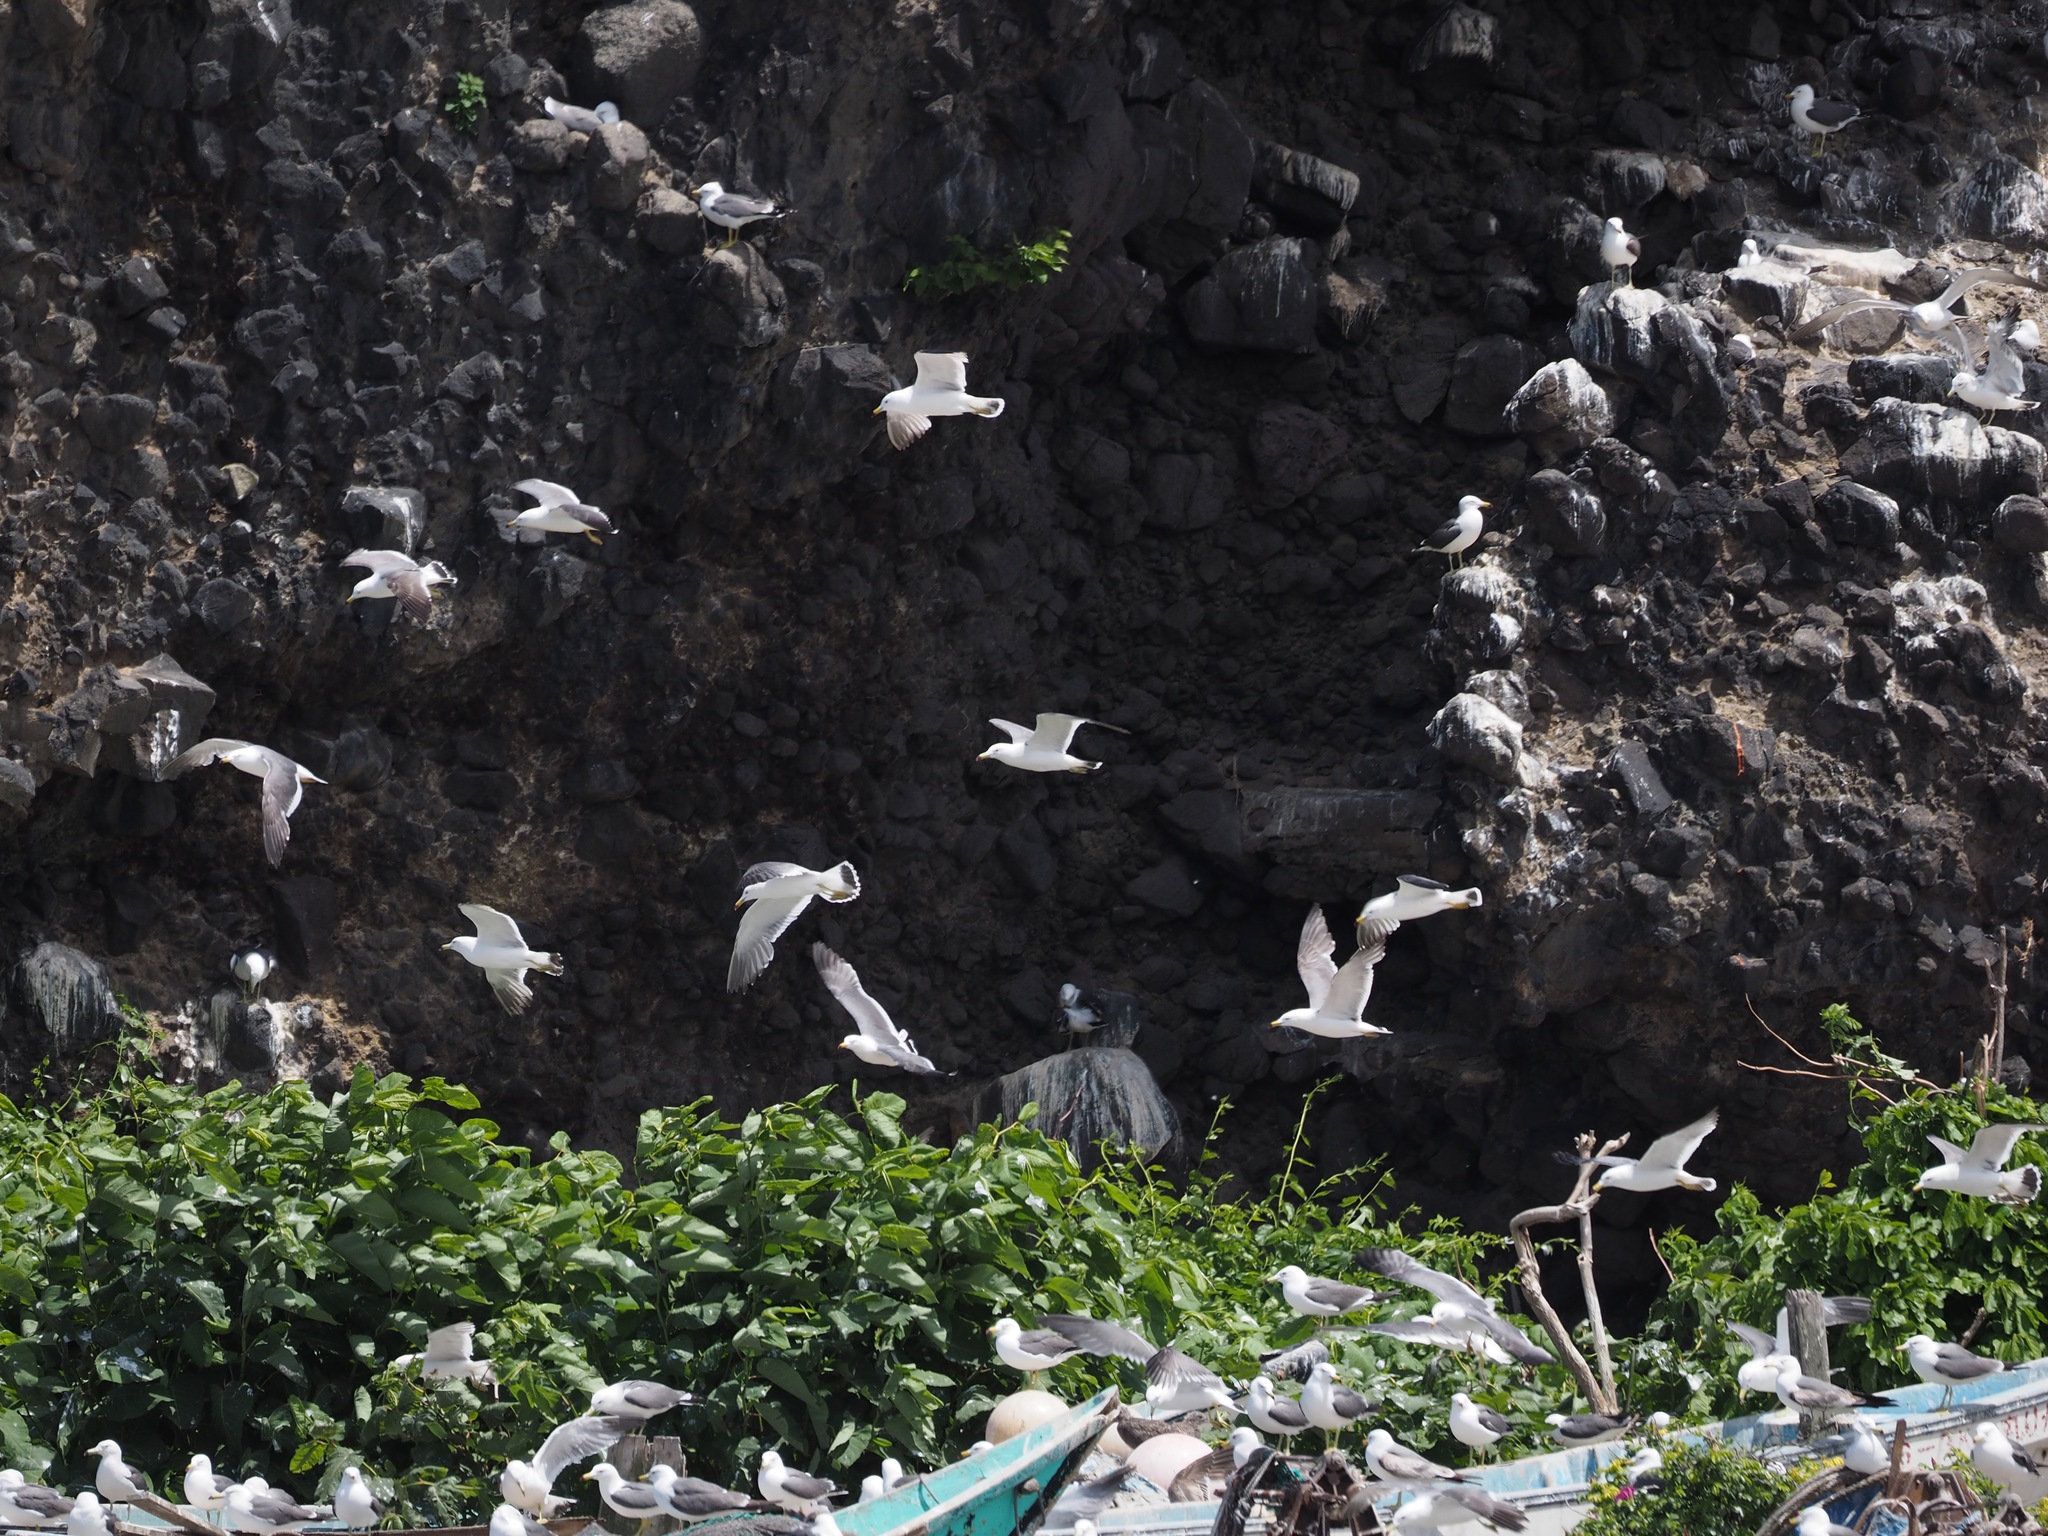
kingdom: Animalia
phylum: Chordata
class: Aves
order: Charadriiformes
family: Laridae
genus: Larus
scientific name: Larus crassirostris
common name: Black-tailed gull
